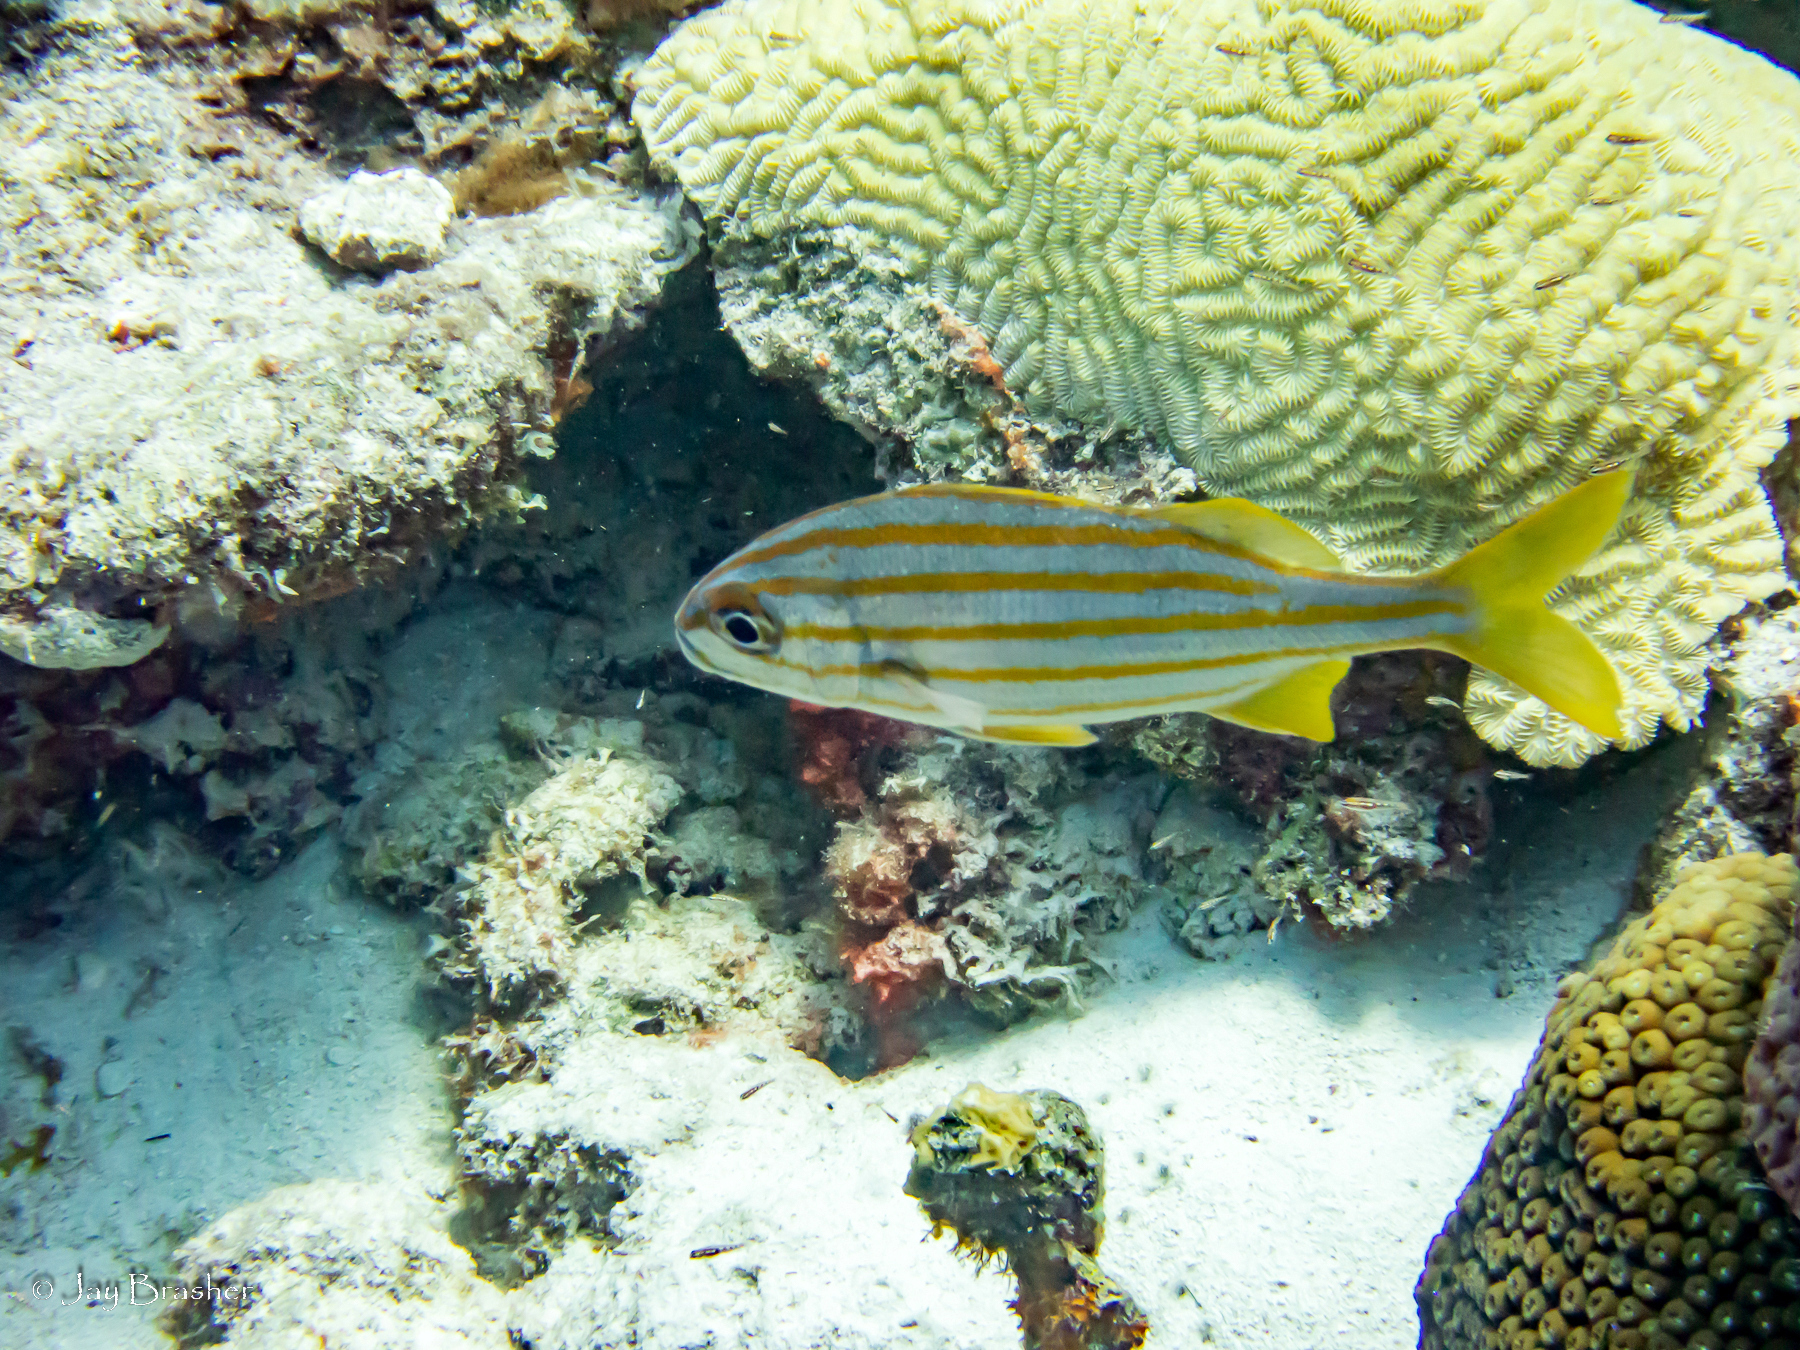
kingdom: Animalia
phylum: Cnidaria
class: Anthozoa
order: Scleractinia
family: Meandrinidae
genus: Meandrina
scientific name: Meandrina meandrites
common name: Maze coral
